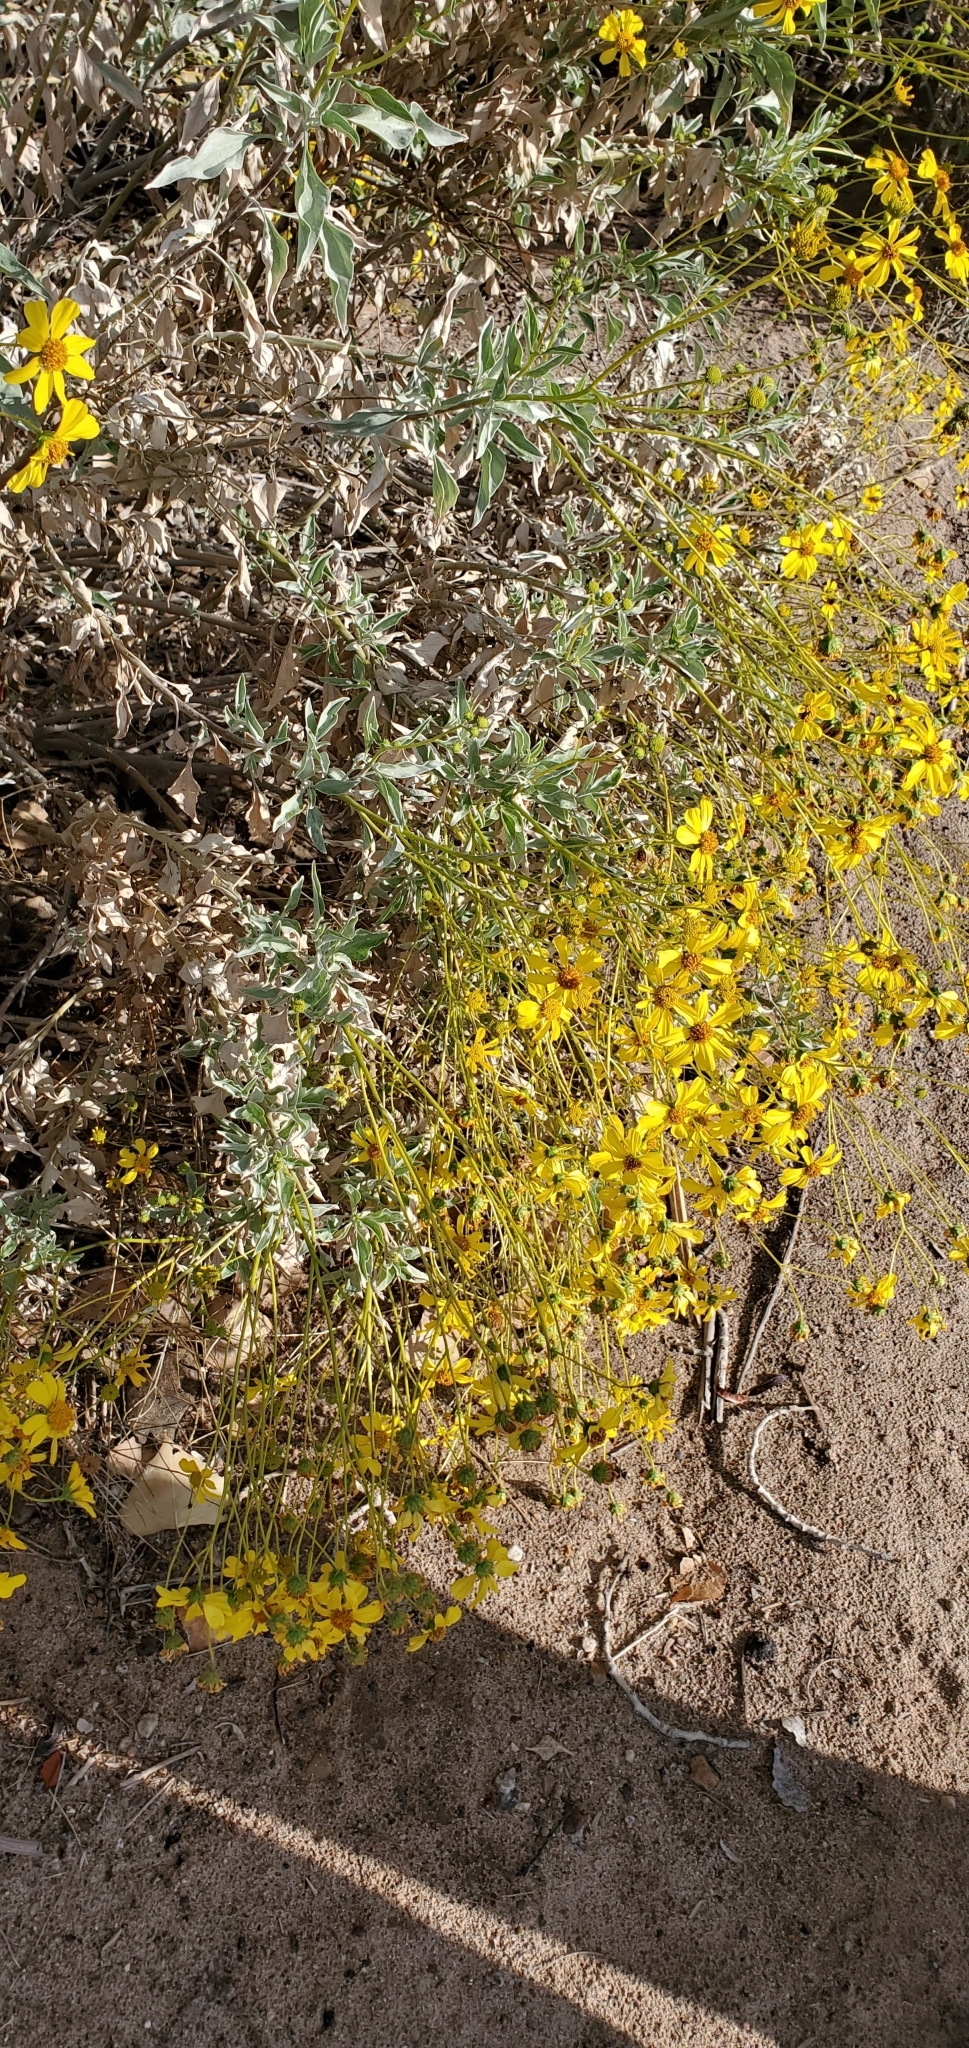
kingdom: Plantae
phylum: Tracheophyta
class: Magnoliopsida
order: Asterales
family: Asteraceae
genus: Encelia
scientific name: Encelia farinosa
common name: Brittlebush
